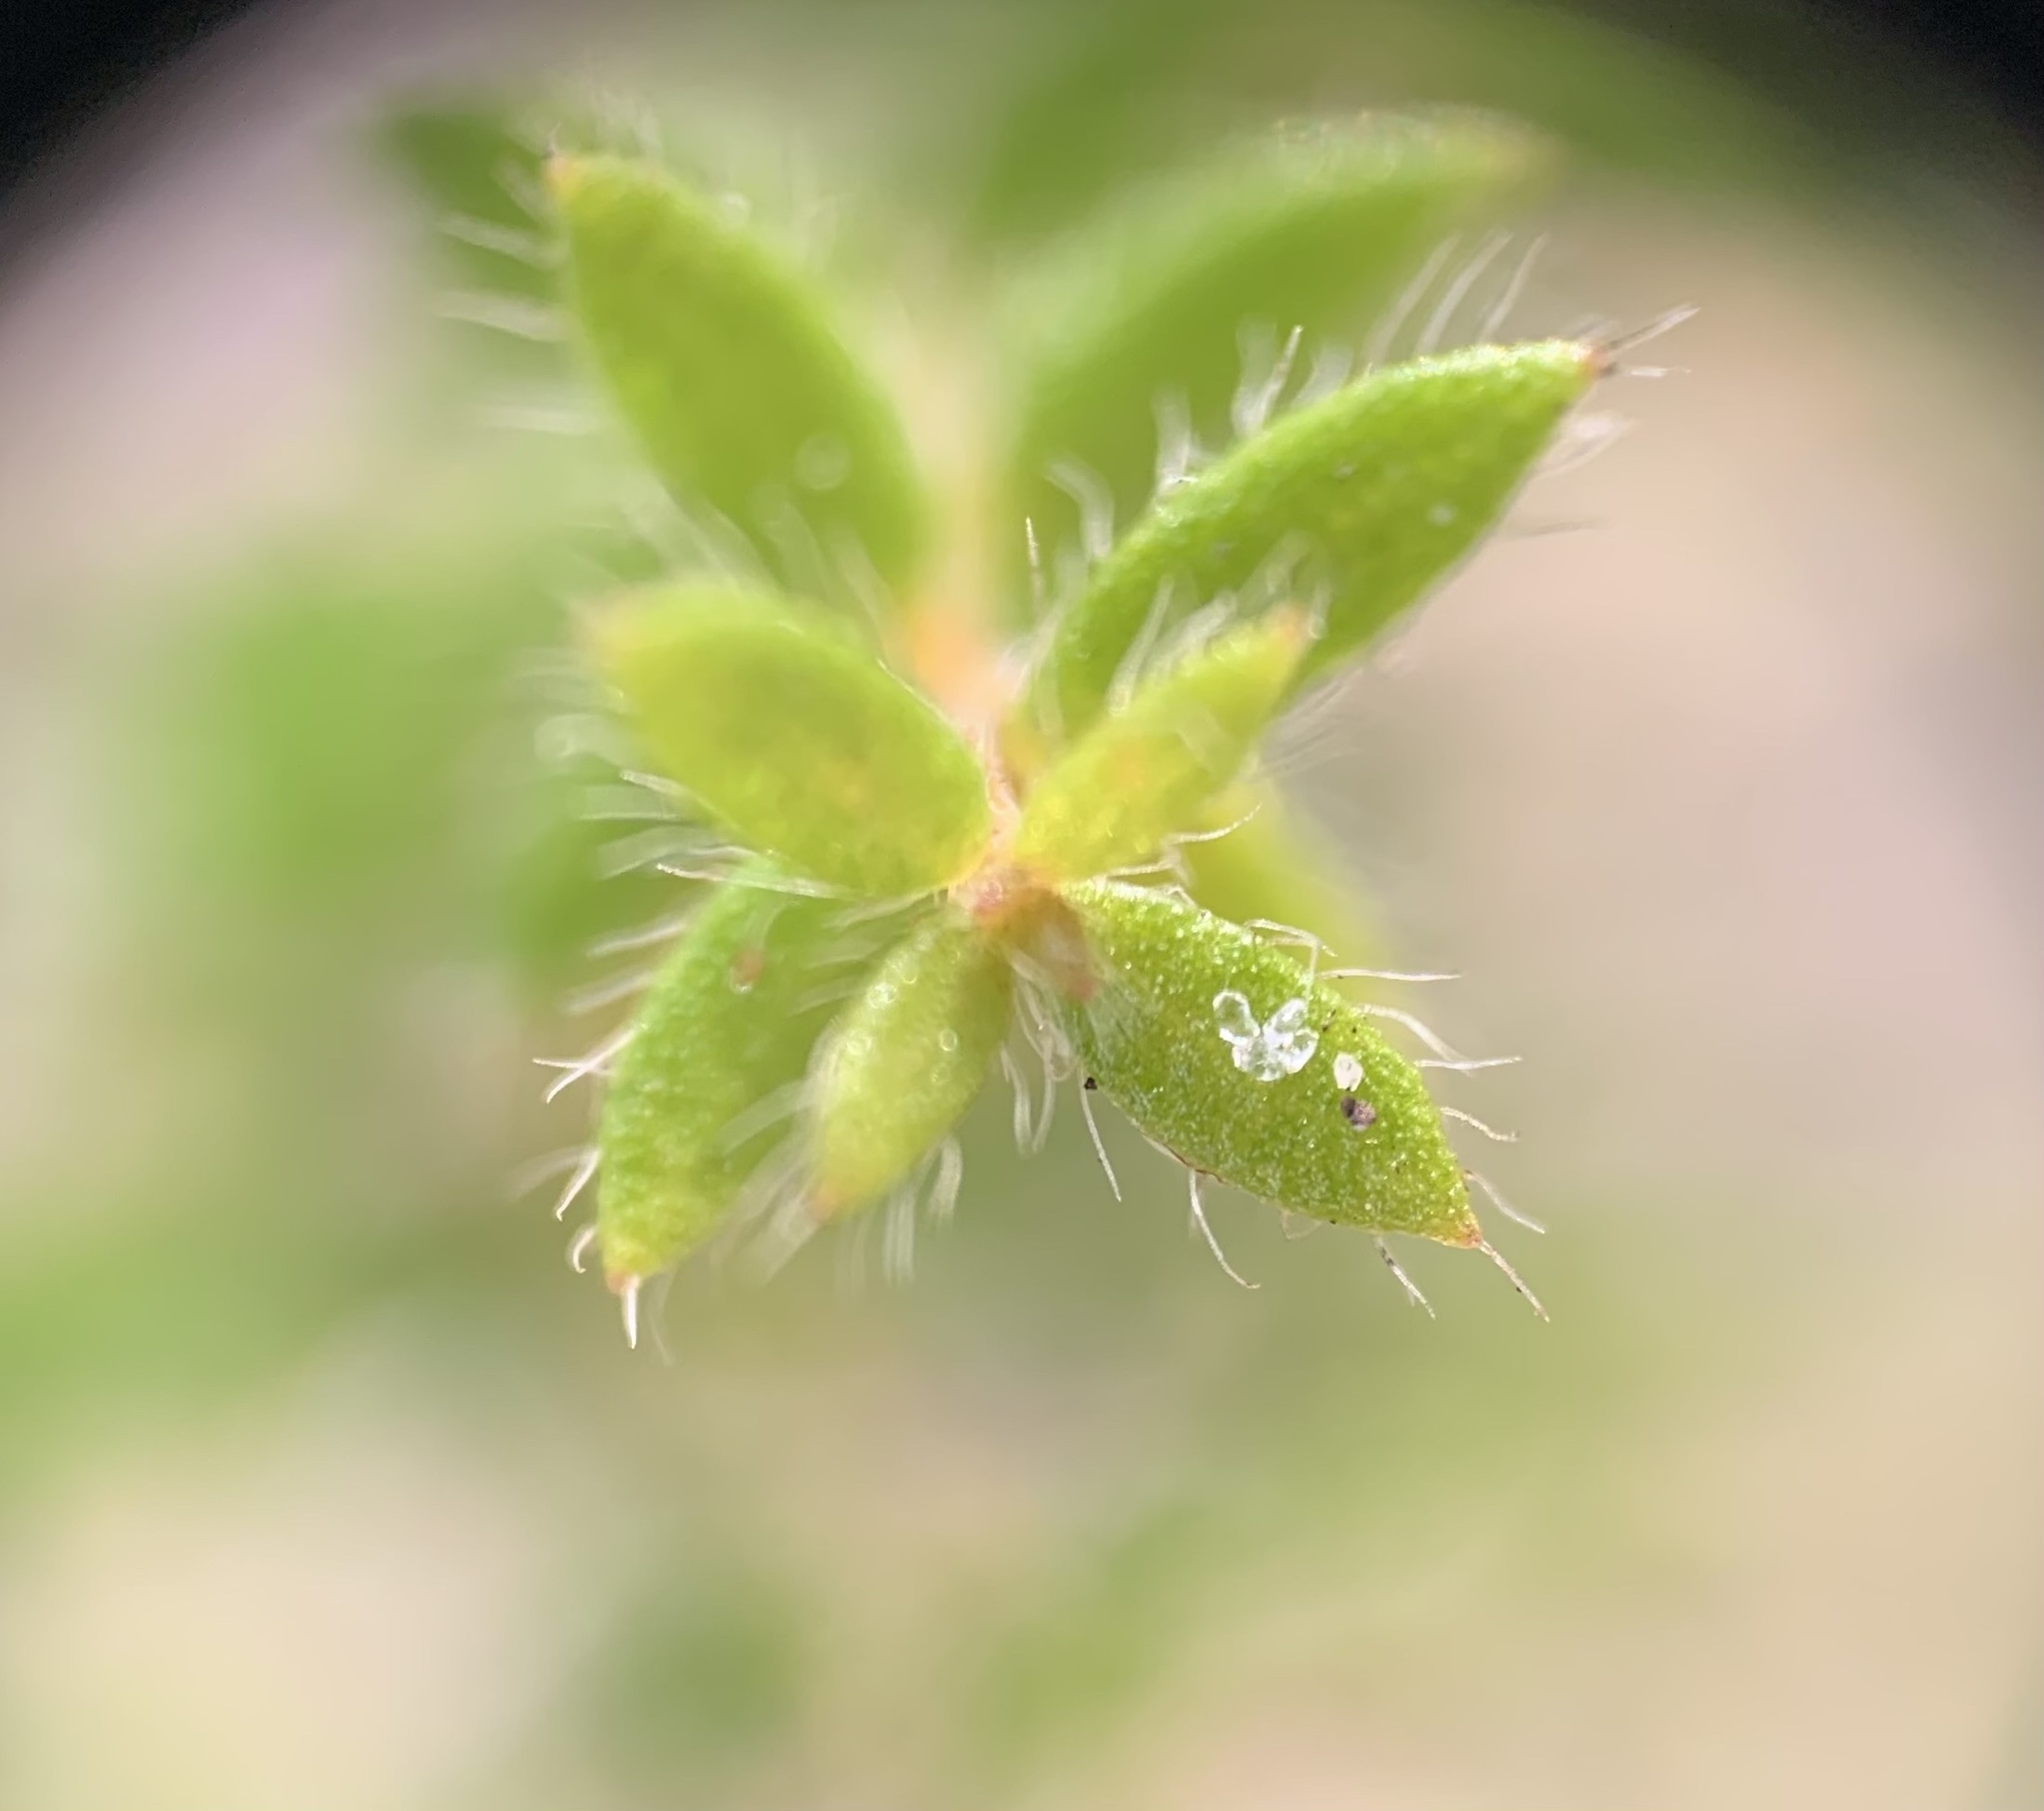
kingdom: Plantae
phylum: Tracheophyta
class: Magnoliopsida
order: Malvales
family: Cistaceae
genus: Lechea
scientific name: Lechea divaricata
